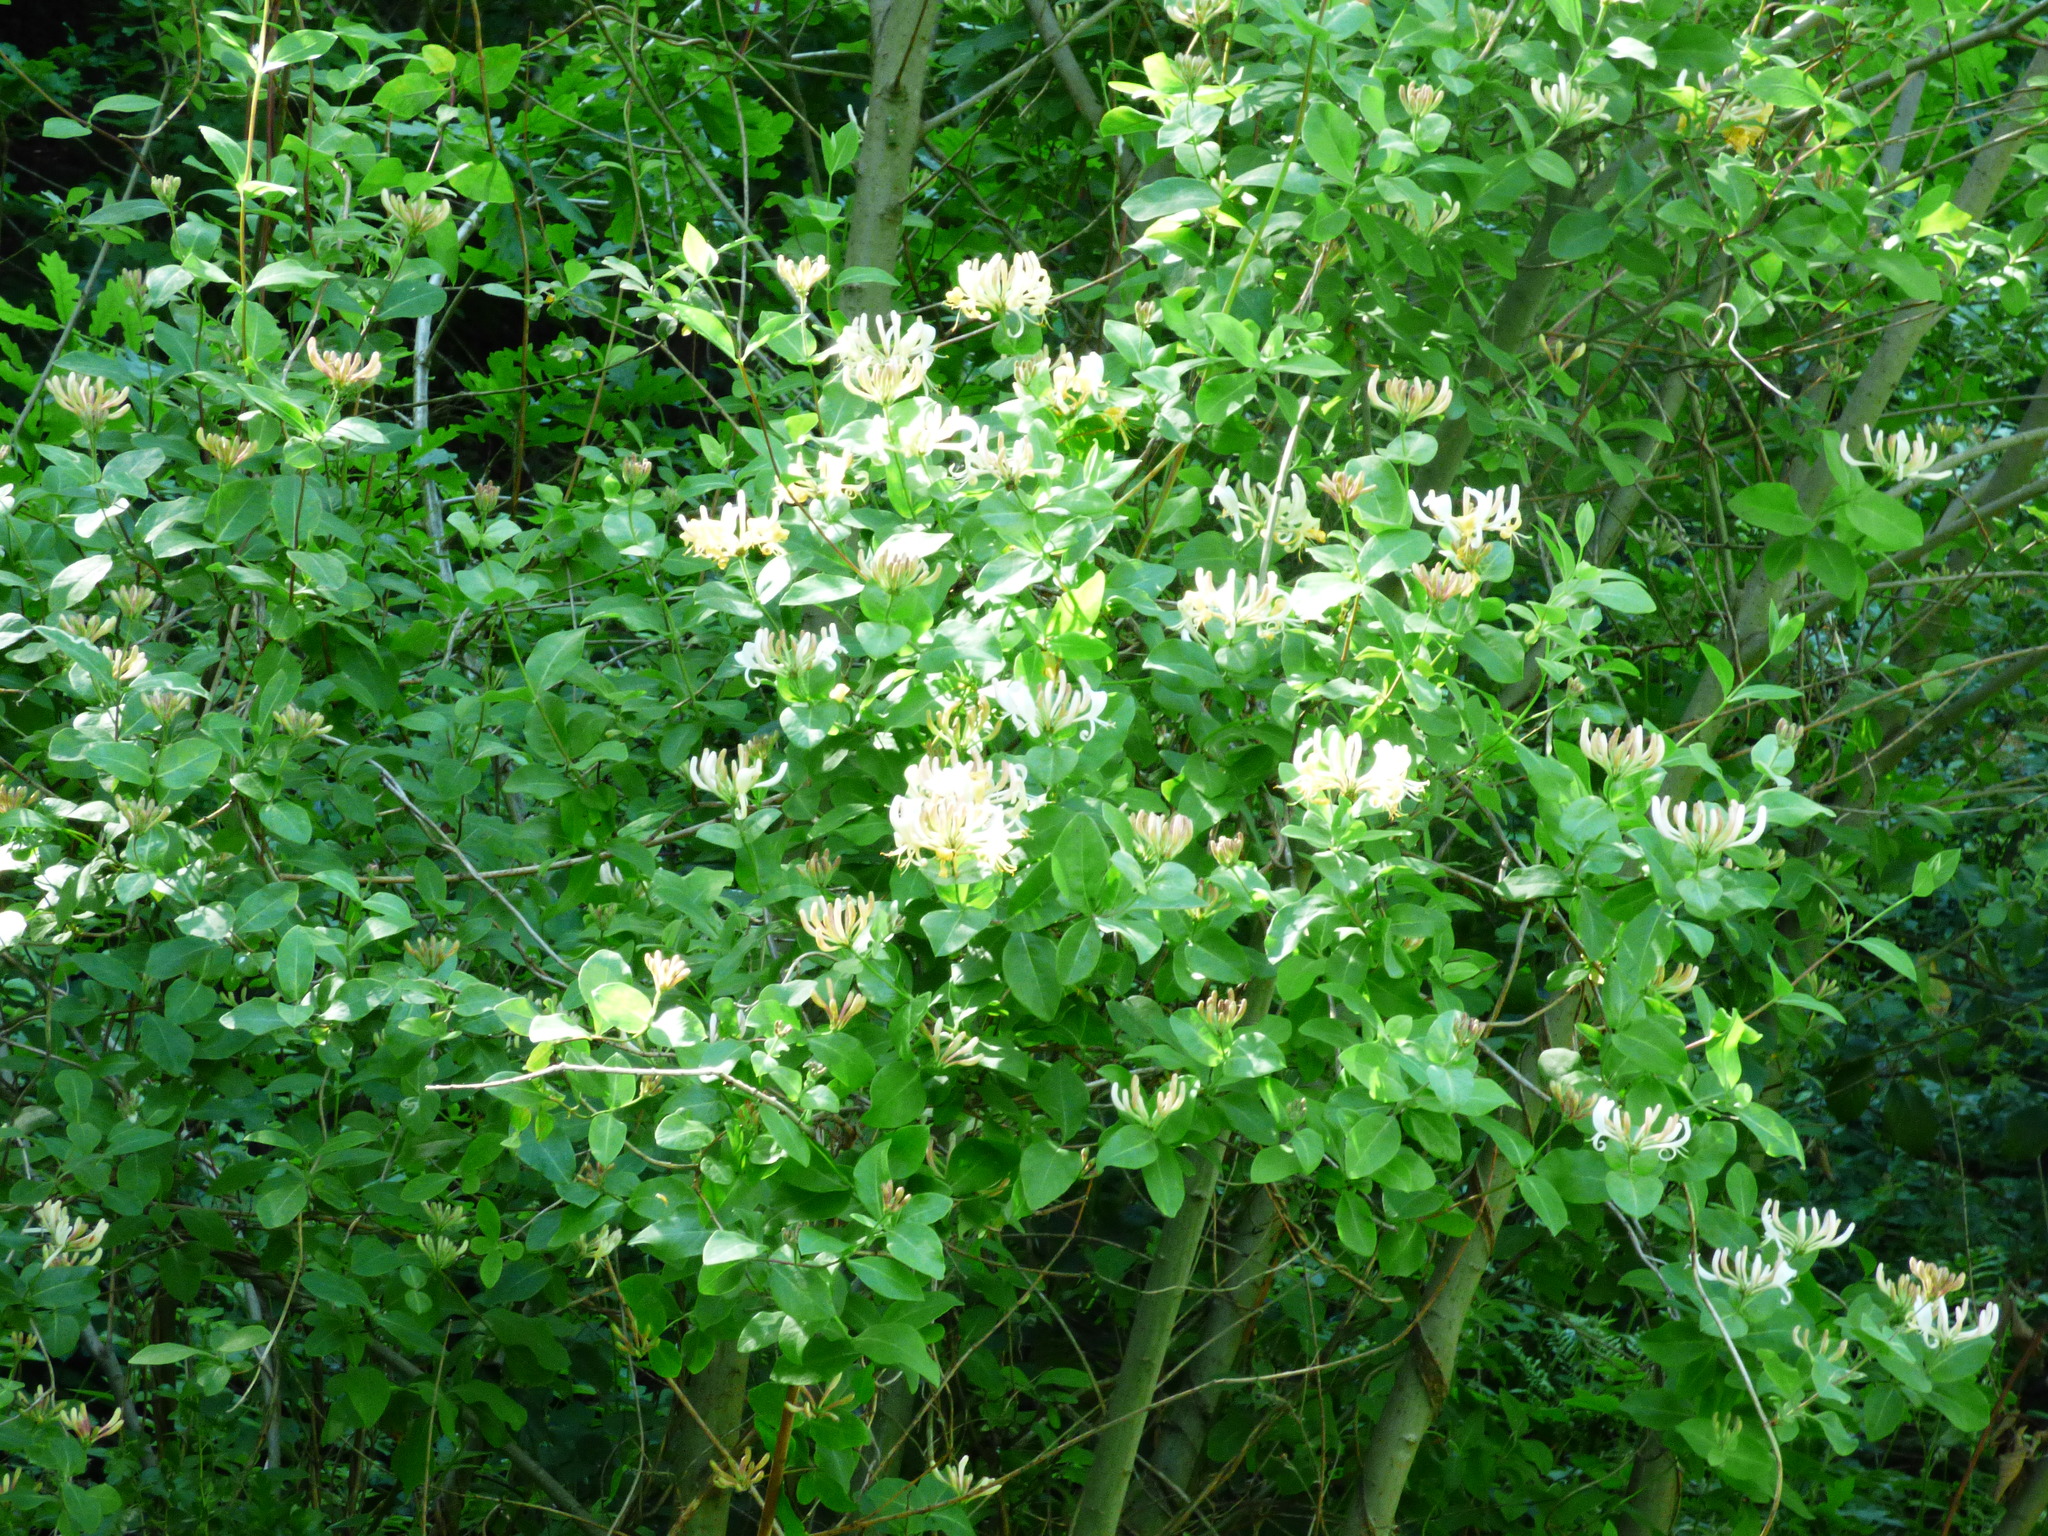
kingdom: Plantae
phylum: Tracheophyta
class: Magnoliopsida
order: Dipsacales
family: Caprifoliaceae
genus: Lonicera
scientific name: Lonicera periclymenum
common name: European honeysuckle
